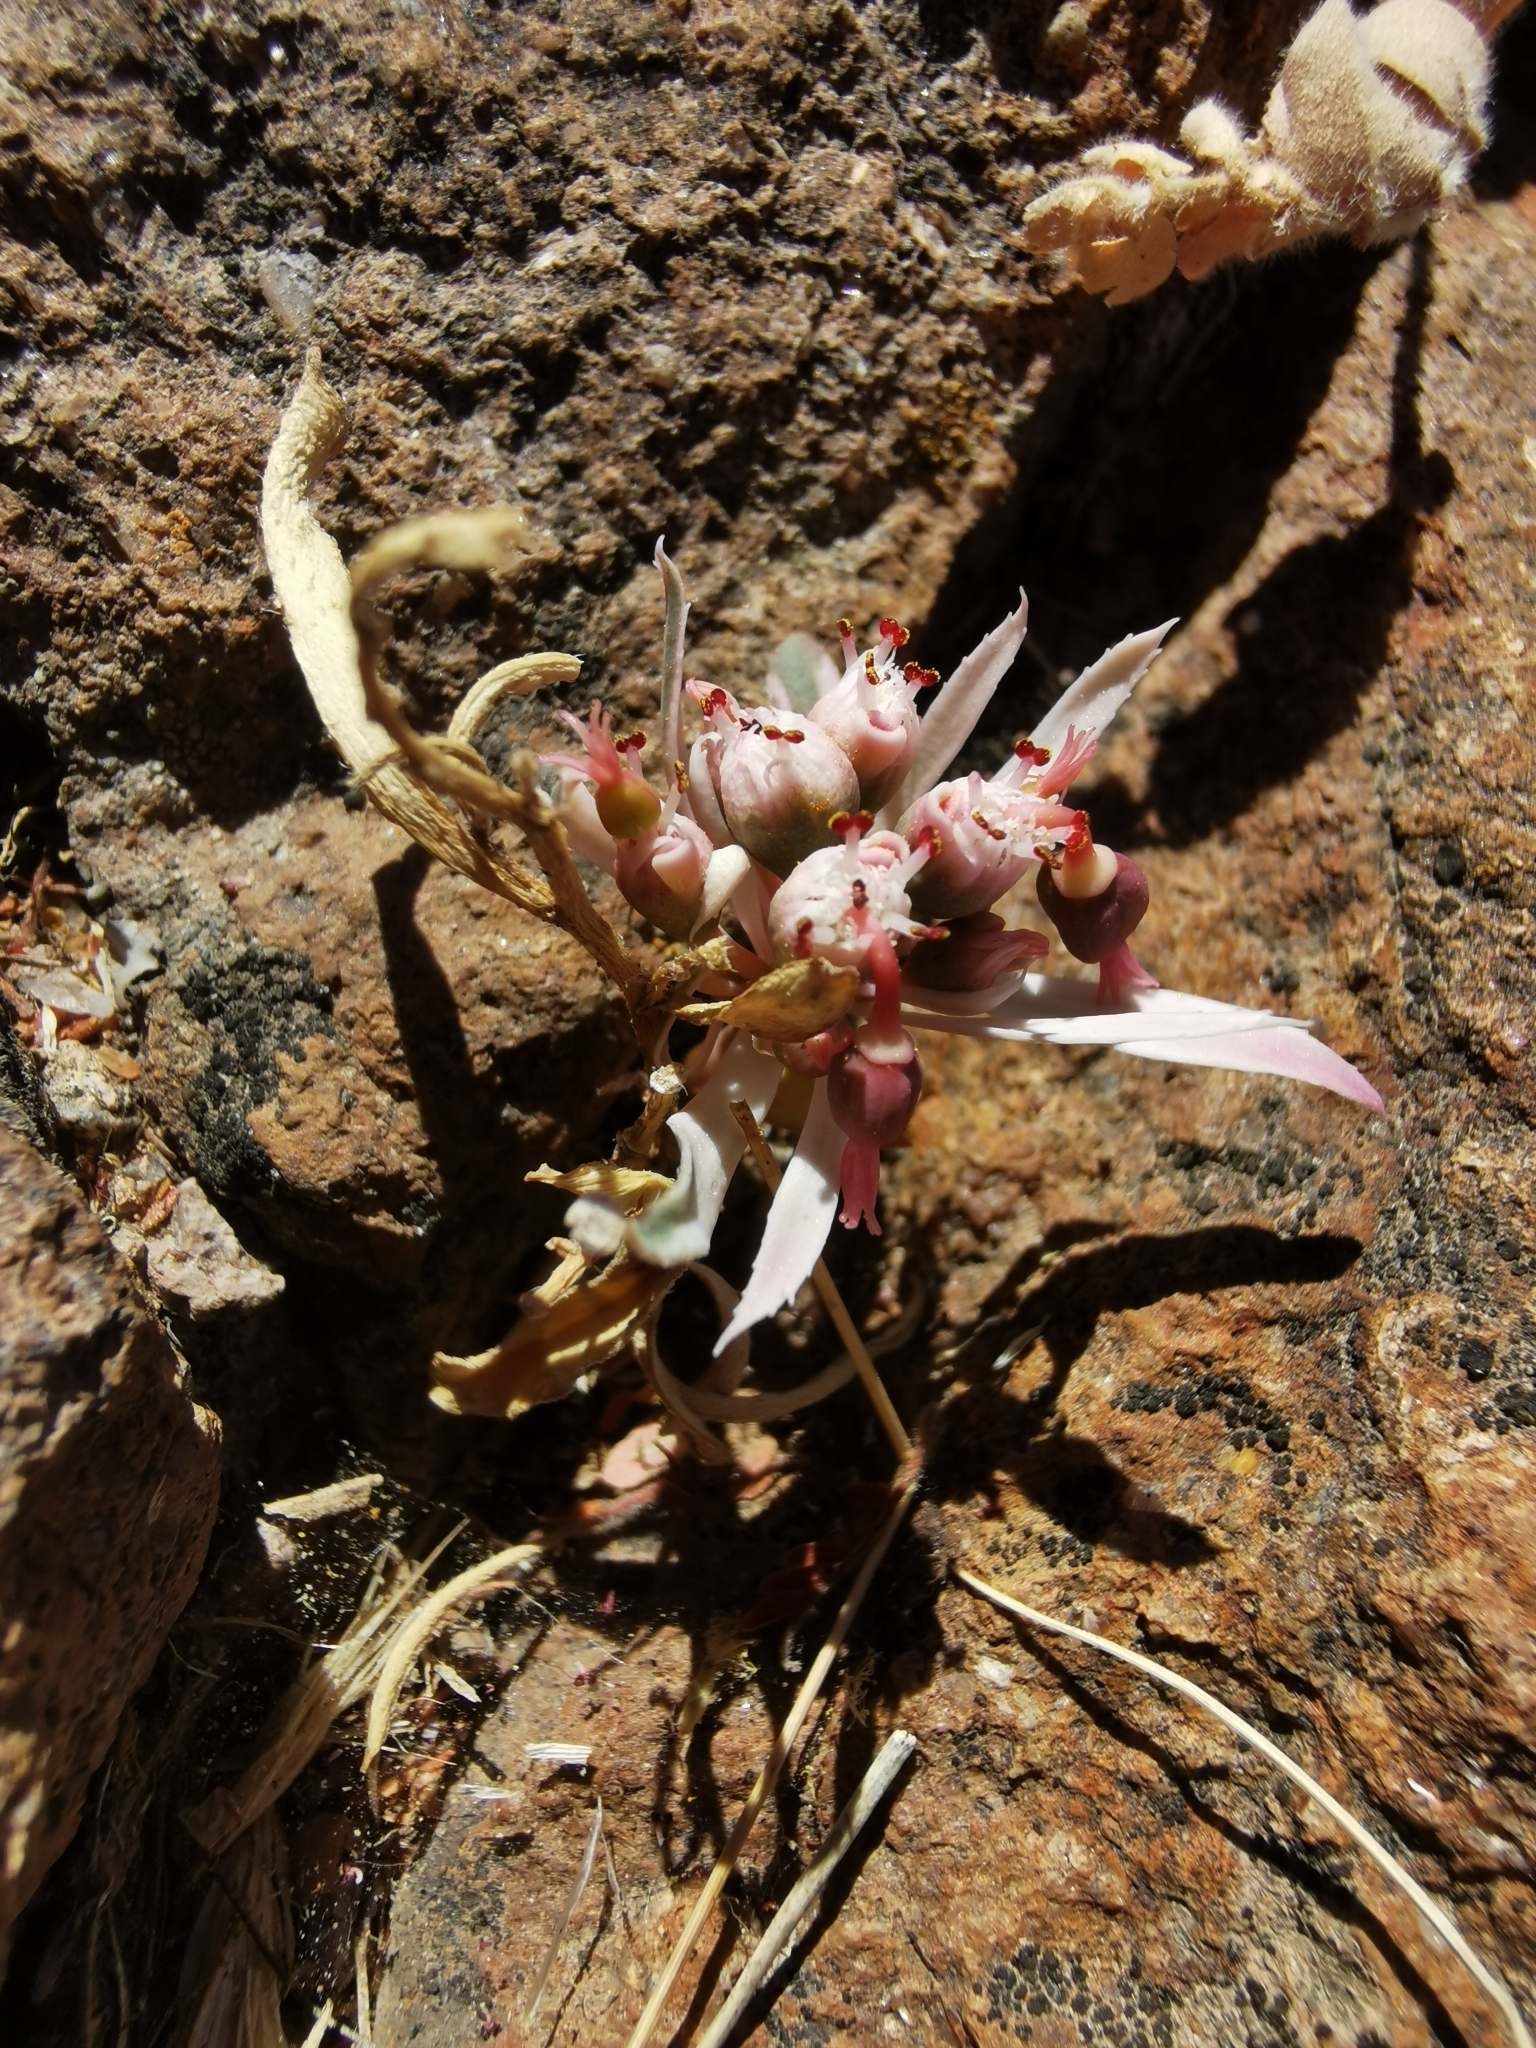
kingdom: Plantae
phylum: Tracheophyta
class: Magnoliopsida
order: Malpighiales
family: Euphorbiaceae
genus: Euphorbia
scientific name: Euphorbia radians
